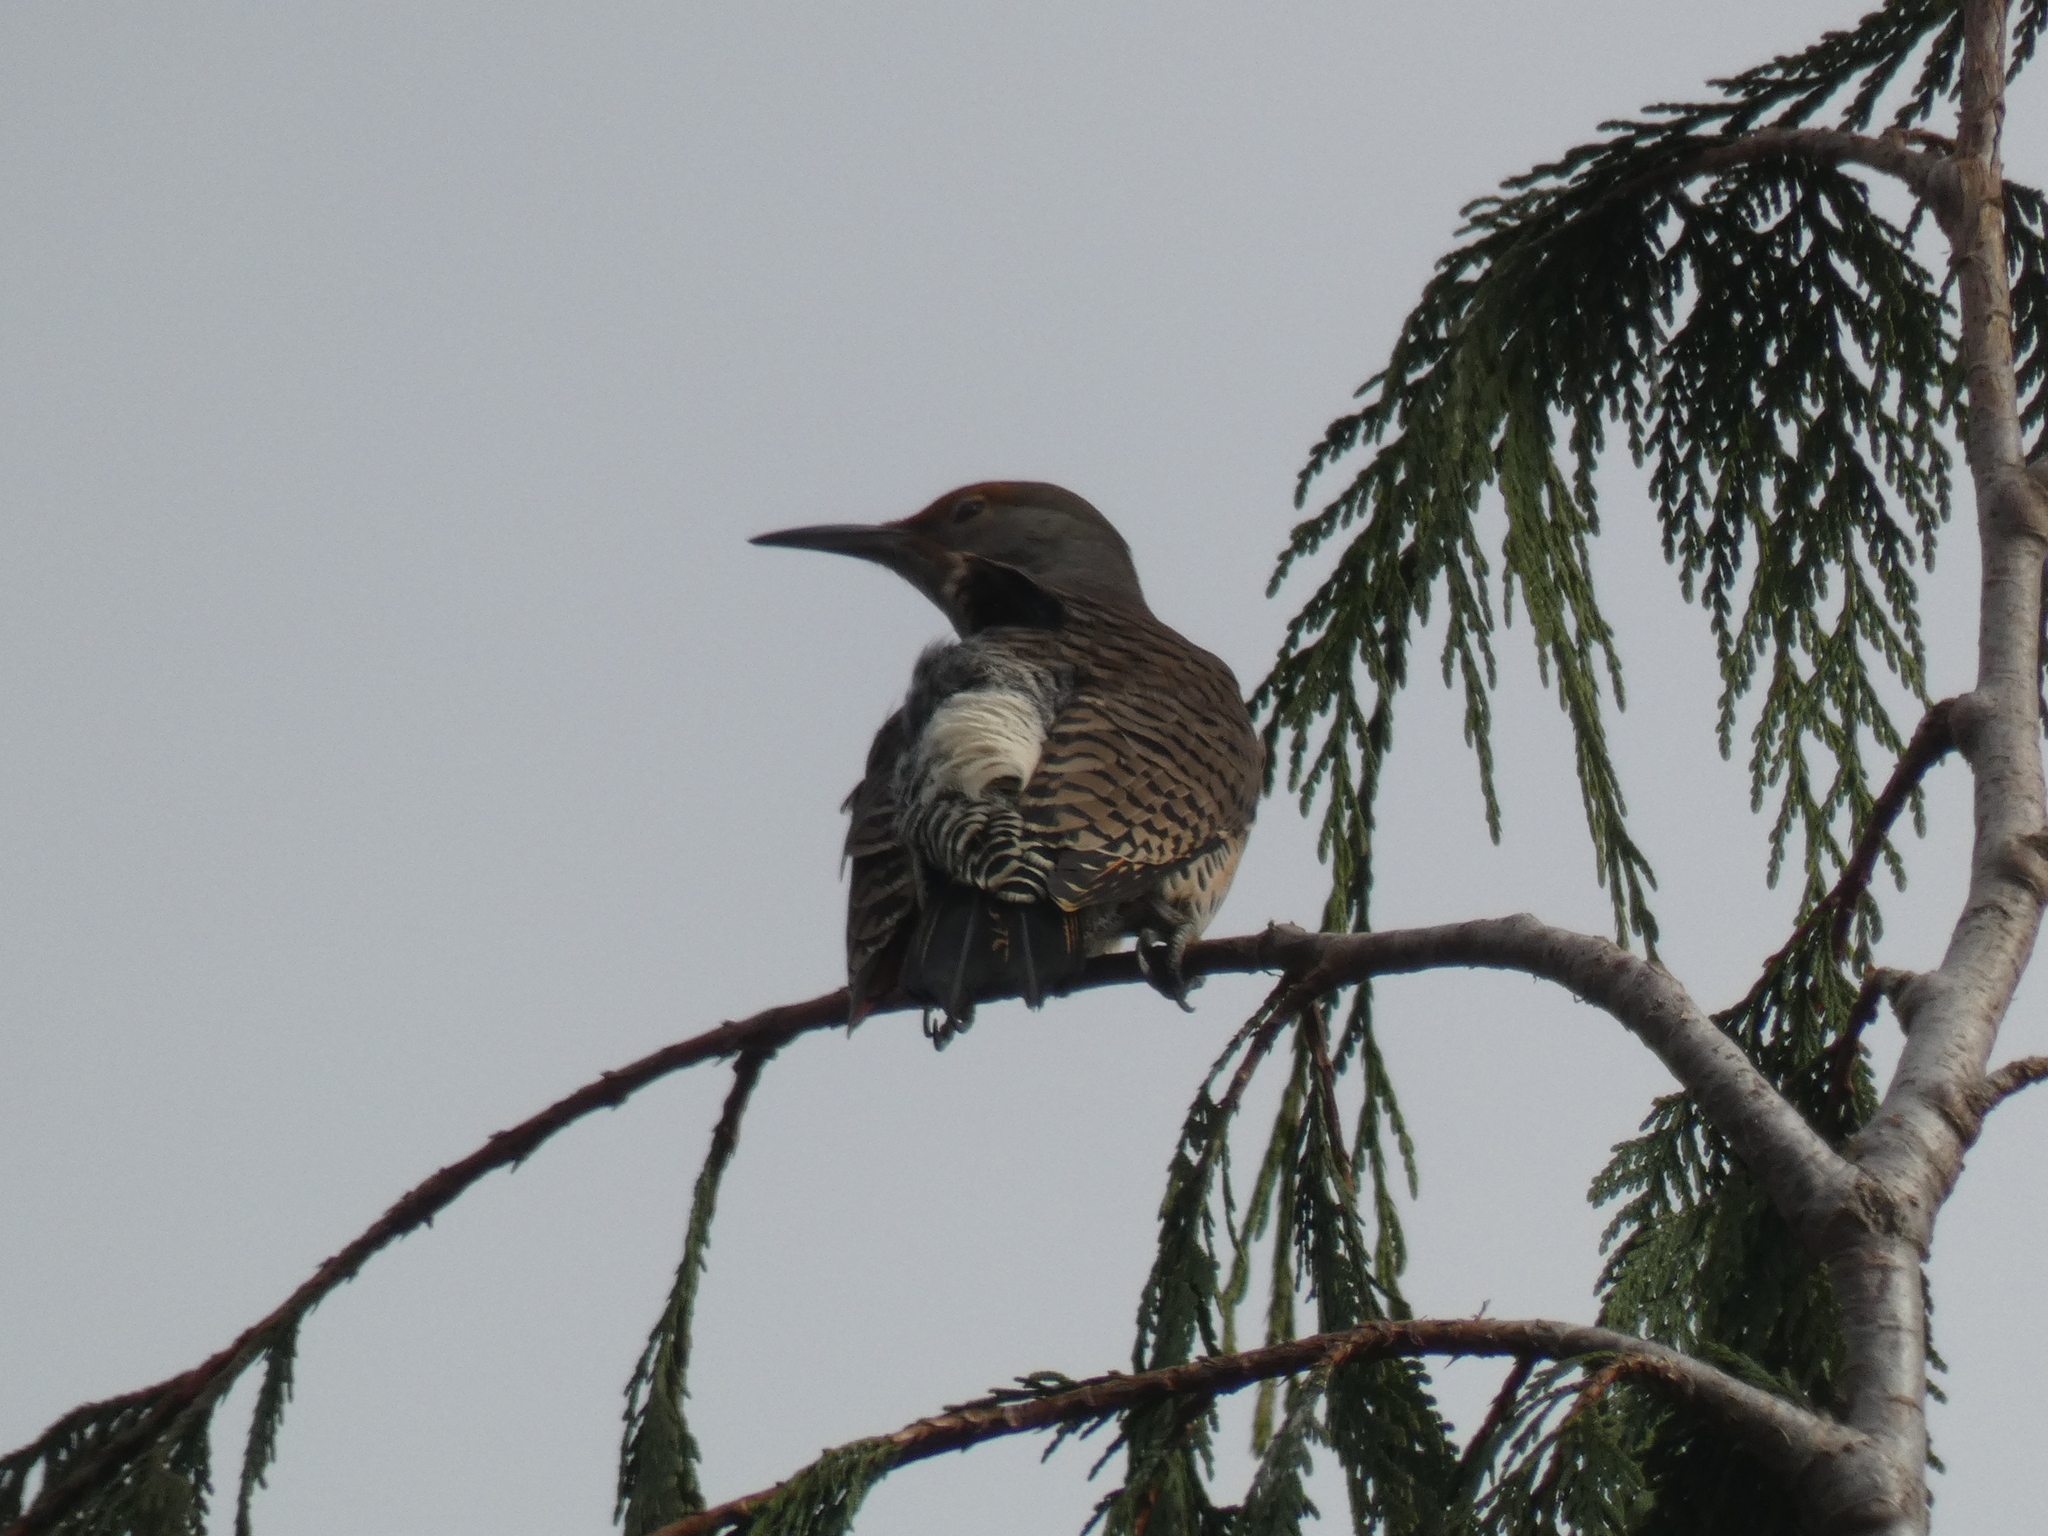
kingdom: Animalia
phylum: Chordata
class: Aves
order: Piciformes
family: Picidae
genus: Colaptes
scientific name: Colaptes auratus
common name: Northern flicker
